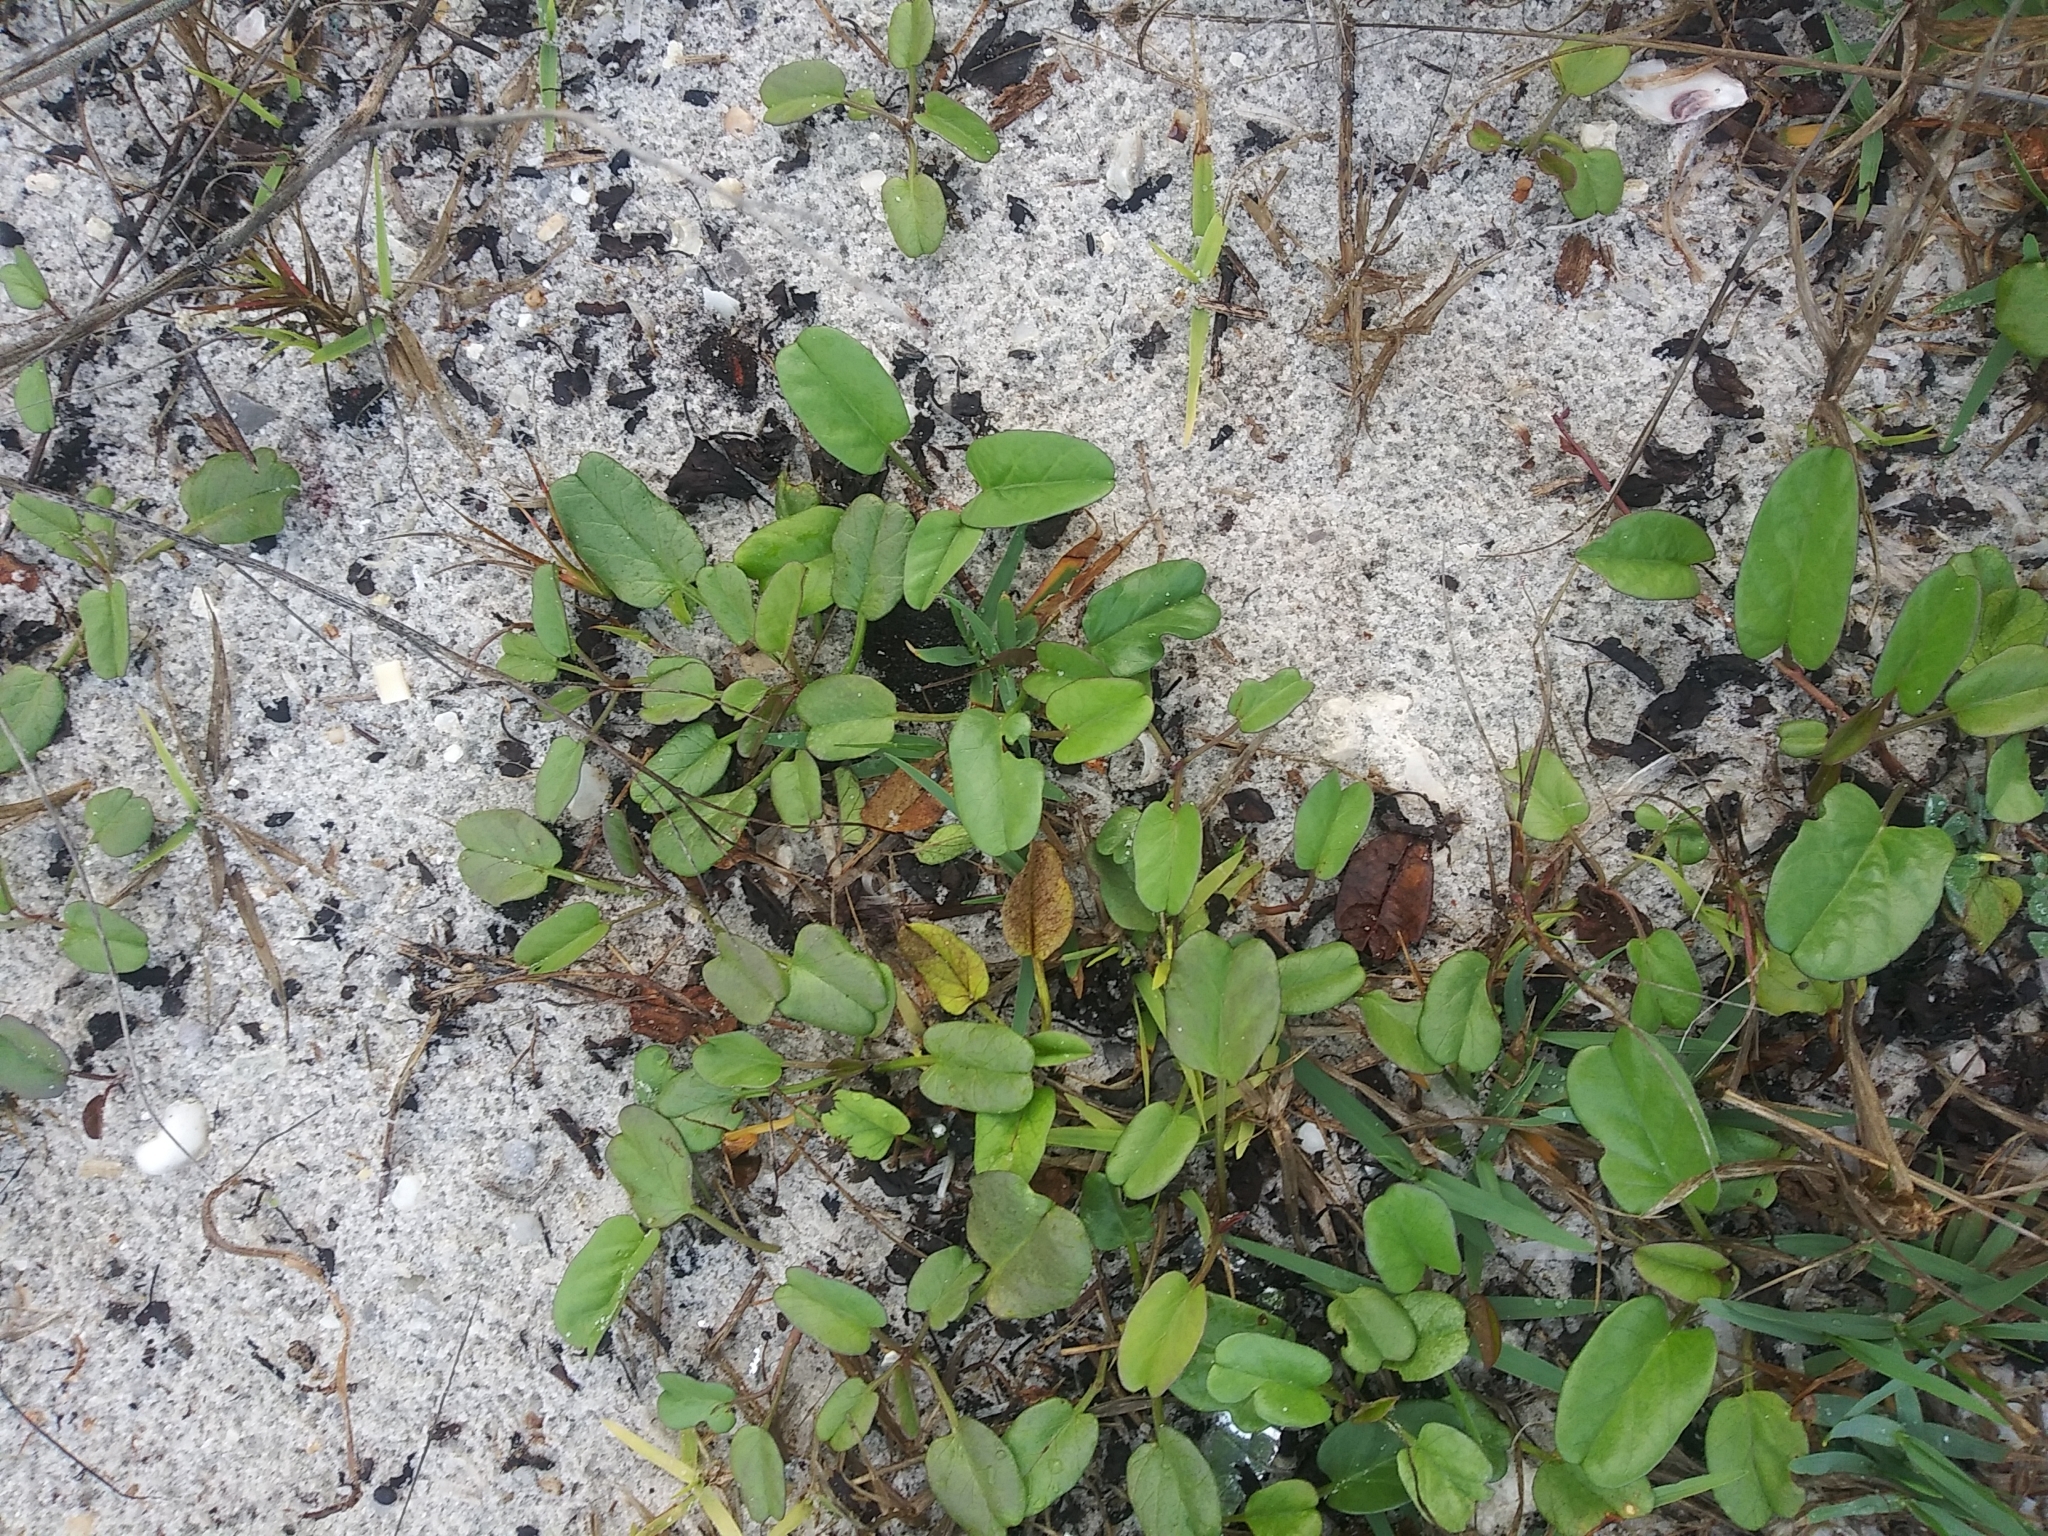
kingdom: Plantae
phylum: Tracheophyta
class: Magnoliopsida
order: Solanales
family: Convolvulaceae
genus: Ipomoea
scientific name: Ipomoea imperati
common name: Fiddle-leaf morning-glory
